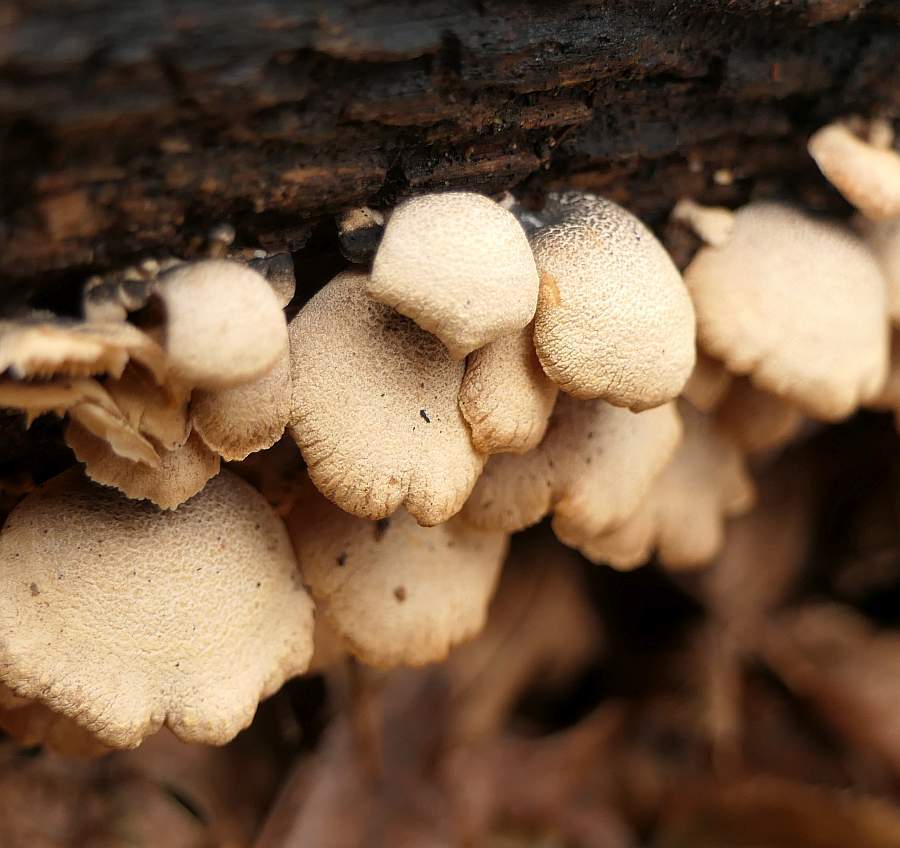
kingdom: Fungi
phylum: Basidiomycota
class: Agaricomycetes
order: Agaricales
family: Mycenaceae
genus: Panellus
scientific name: Panellus stipticus
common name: Bitter oysterling
